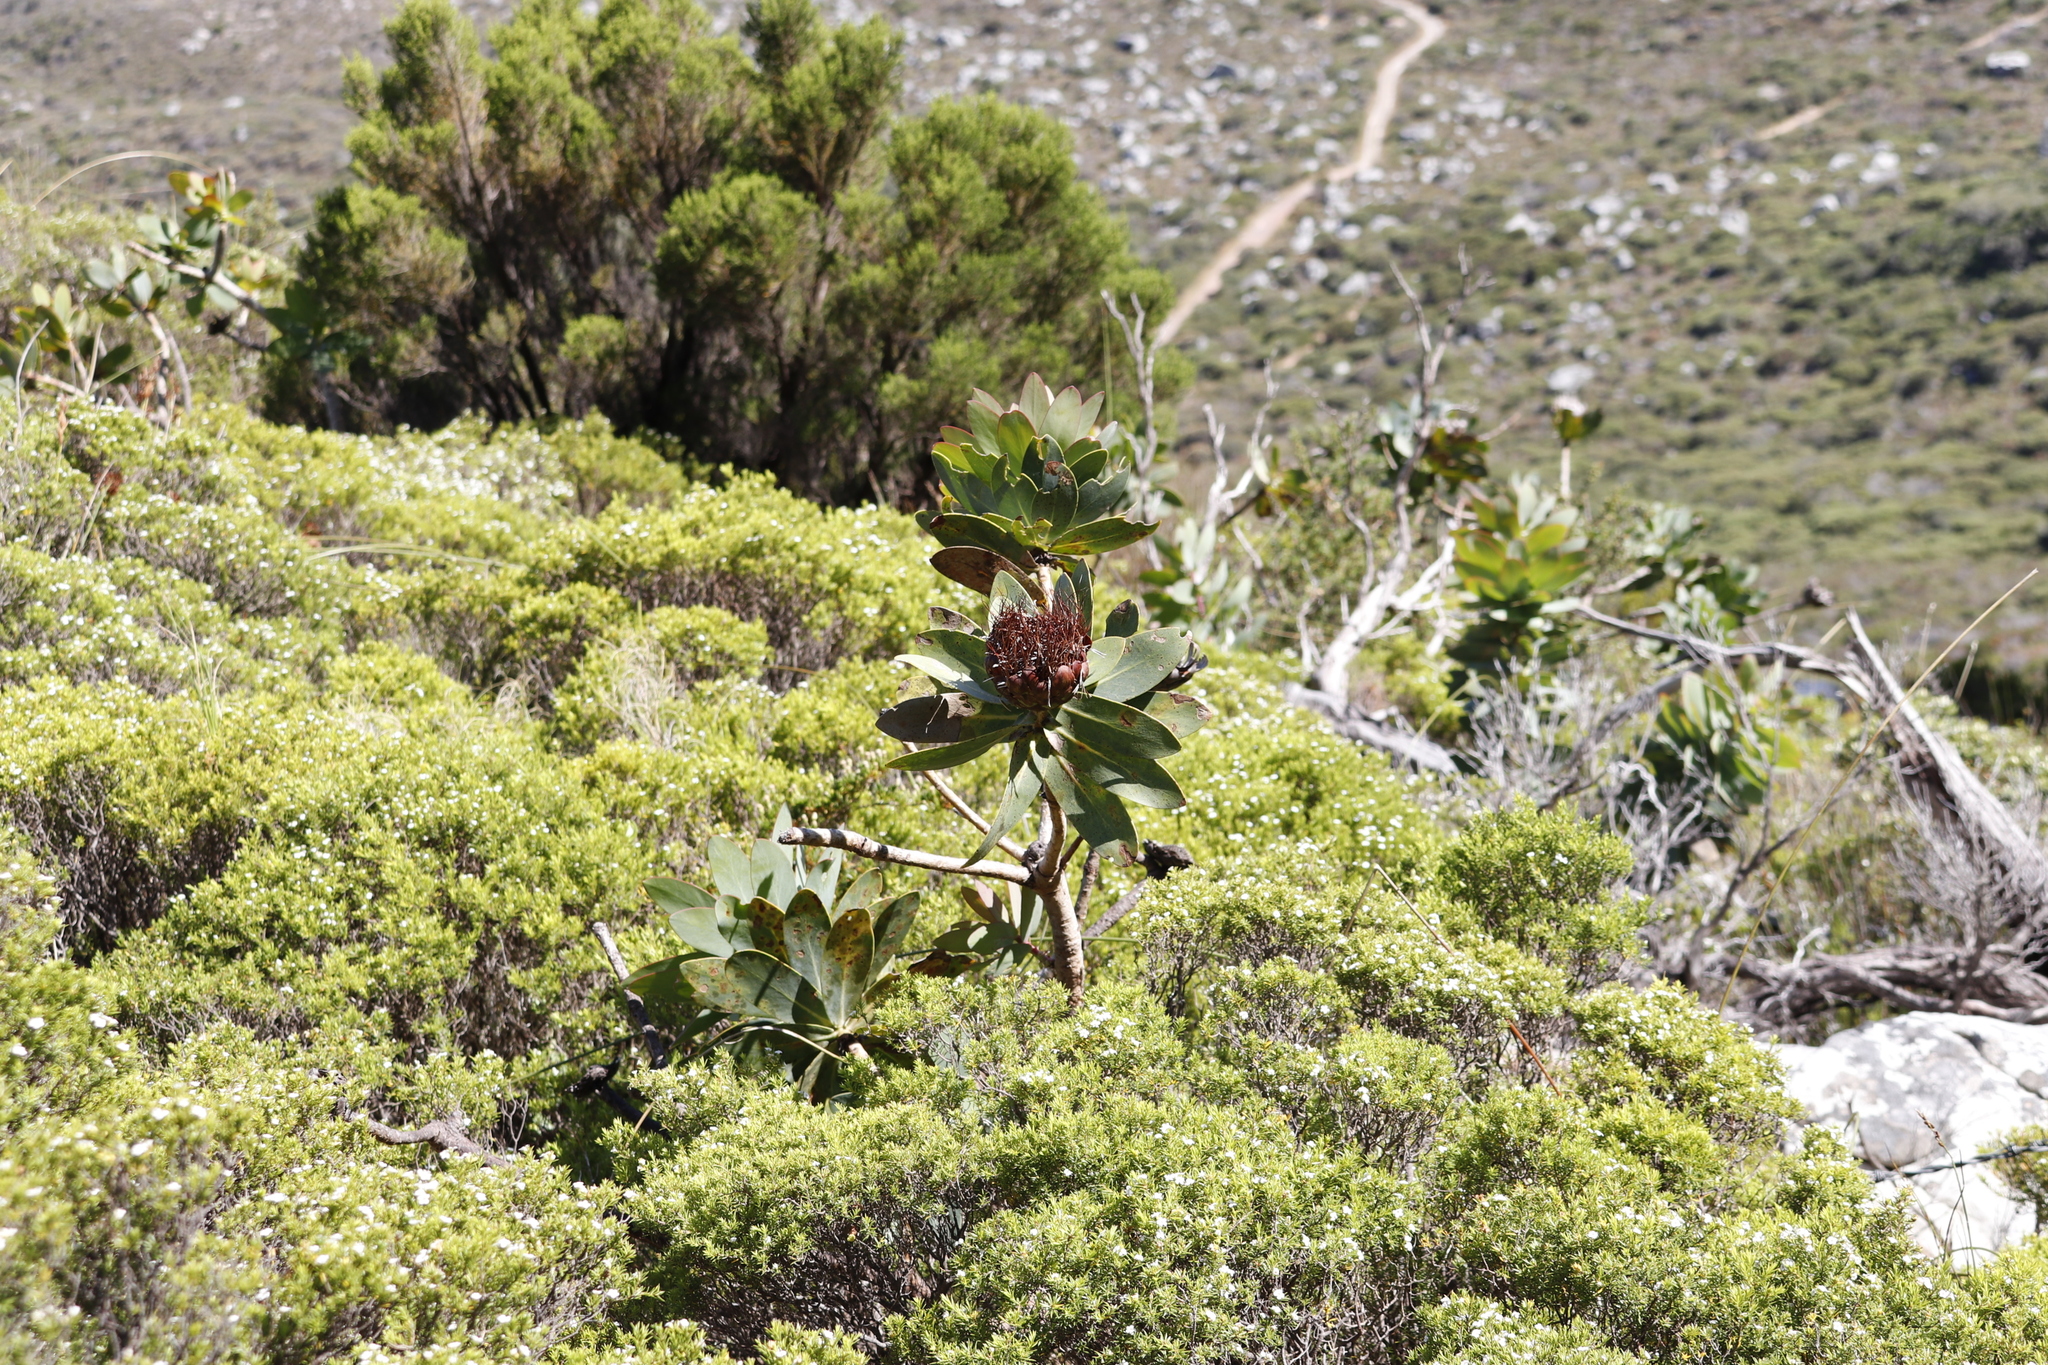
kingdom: Plantae
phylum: Tracheophyta
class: Magnoliopsida
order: Proteales
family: Proteaceae
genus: Protea
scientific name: Protea nitida
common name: Tree protea
